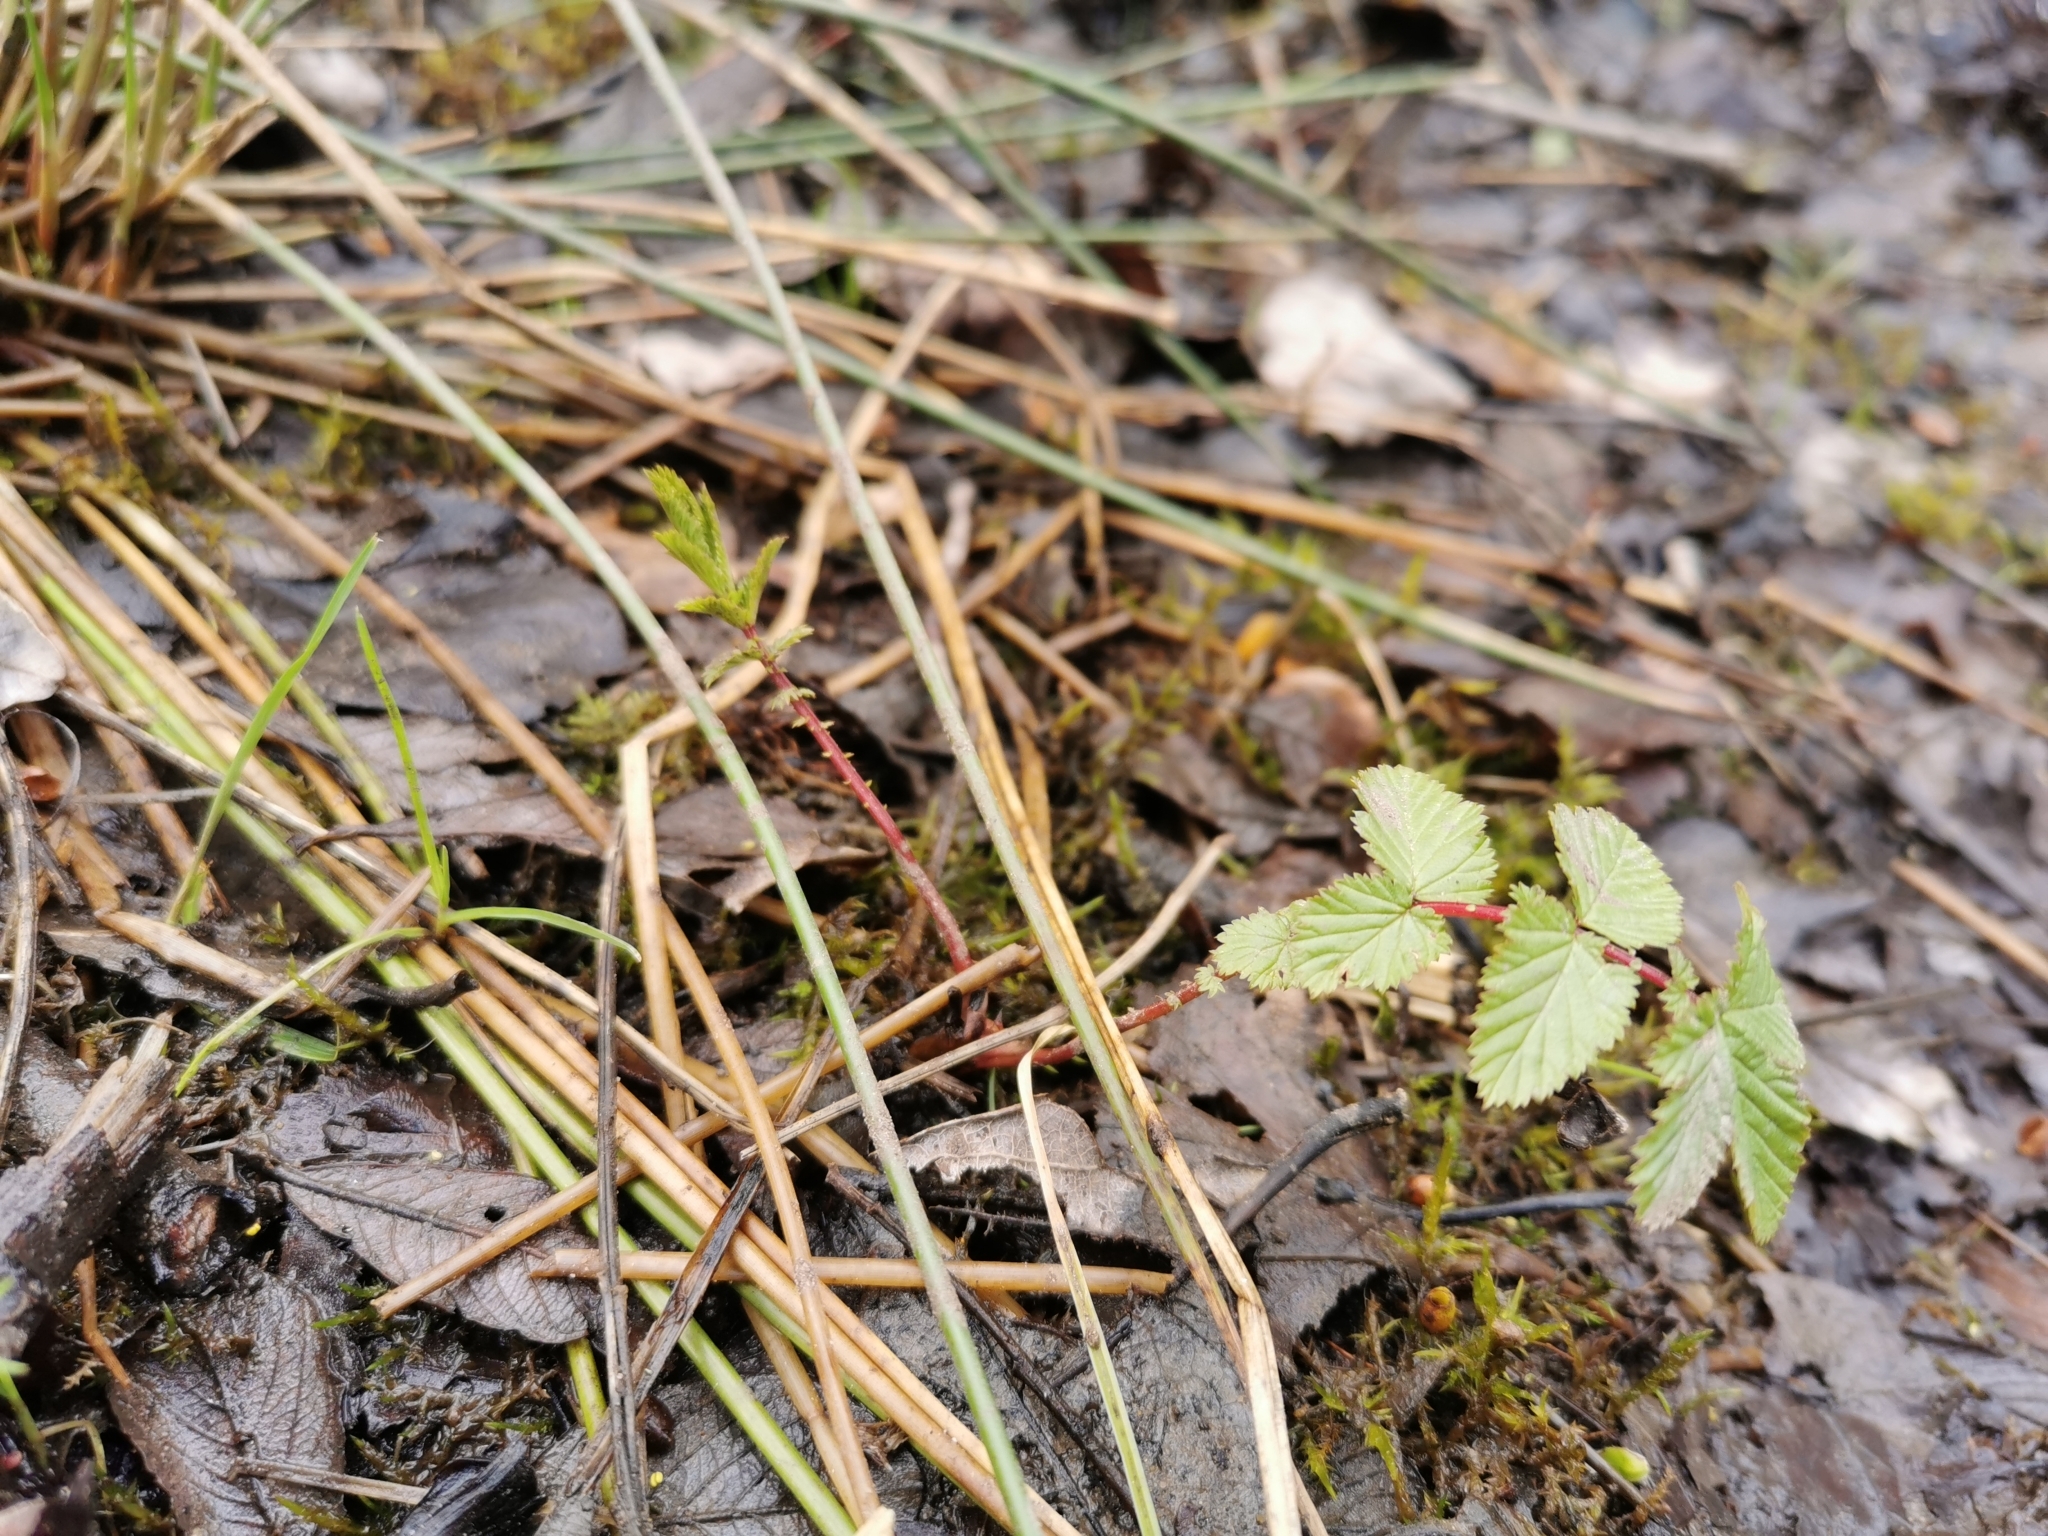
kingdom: Plantae
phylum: Tracheophyta
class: Magnoliopsida
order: Rosales
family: Rosaceae
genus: Filipendula
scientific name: Filipendula ulmaria
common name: Meadowsweet
